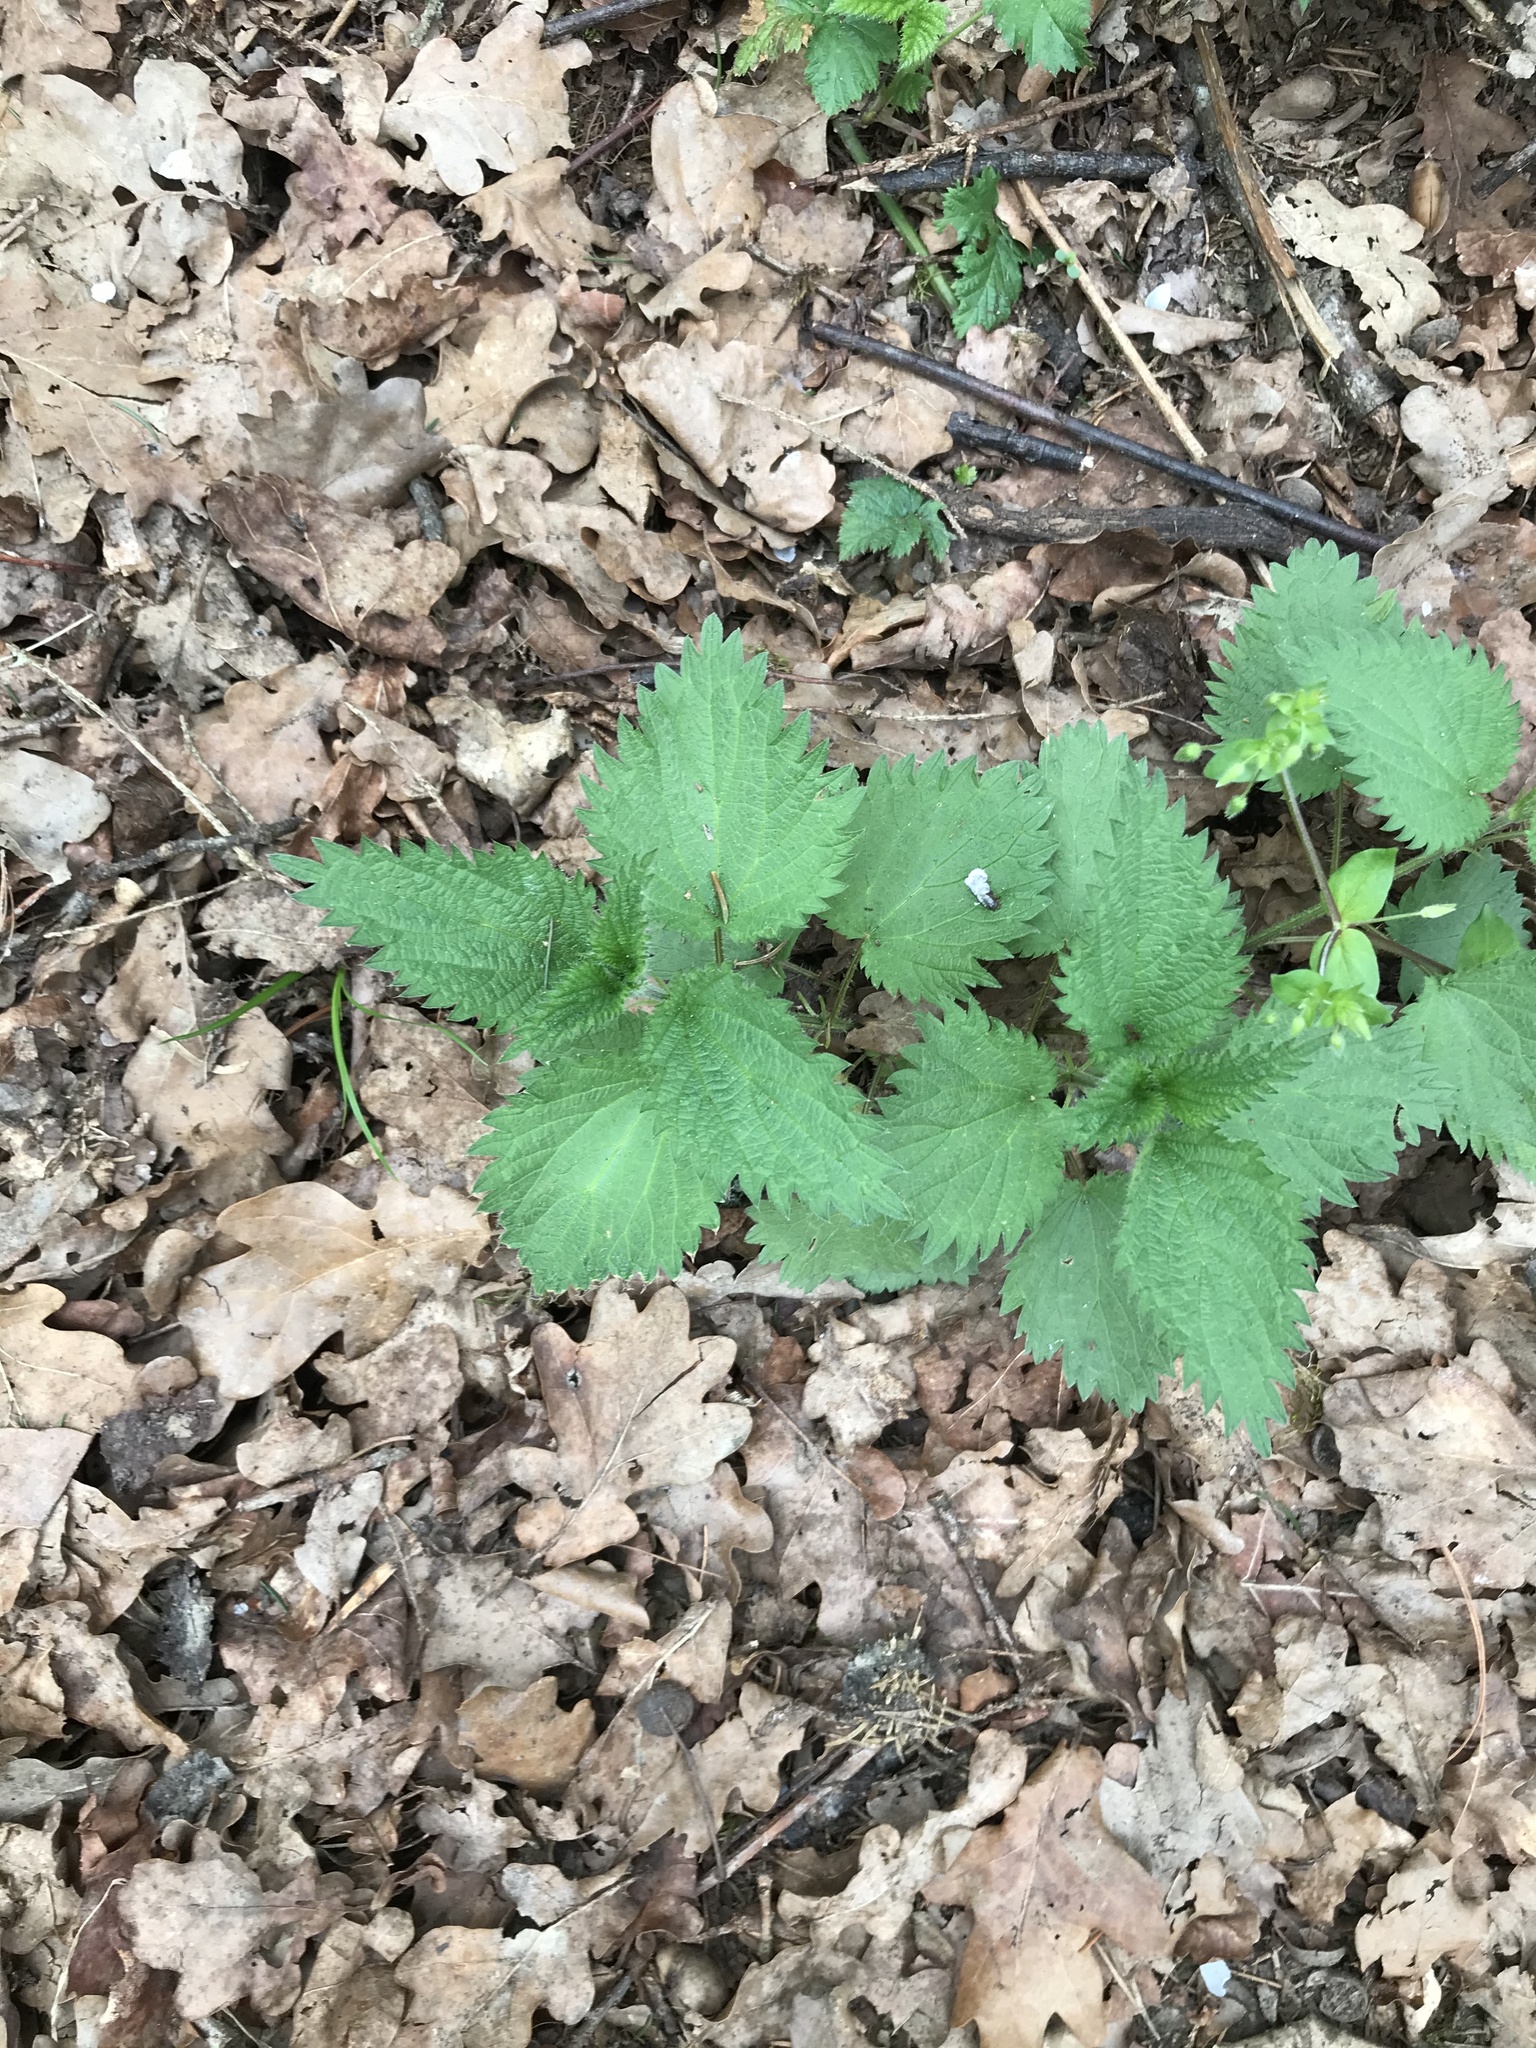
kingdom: Plantae
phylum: Tracheophyta
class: Magnoliopsida
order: Rosales
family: Urticaceae
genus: Urtica
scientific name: Urtica dioica
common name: Common nettle
